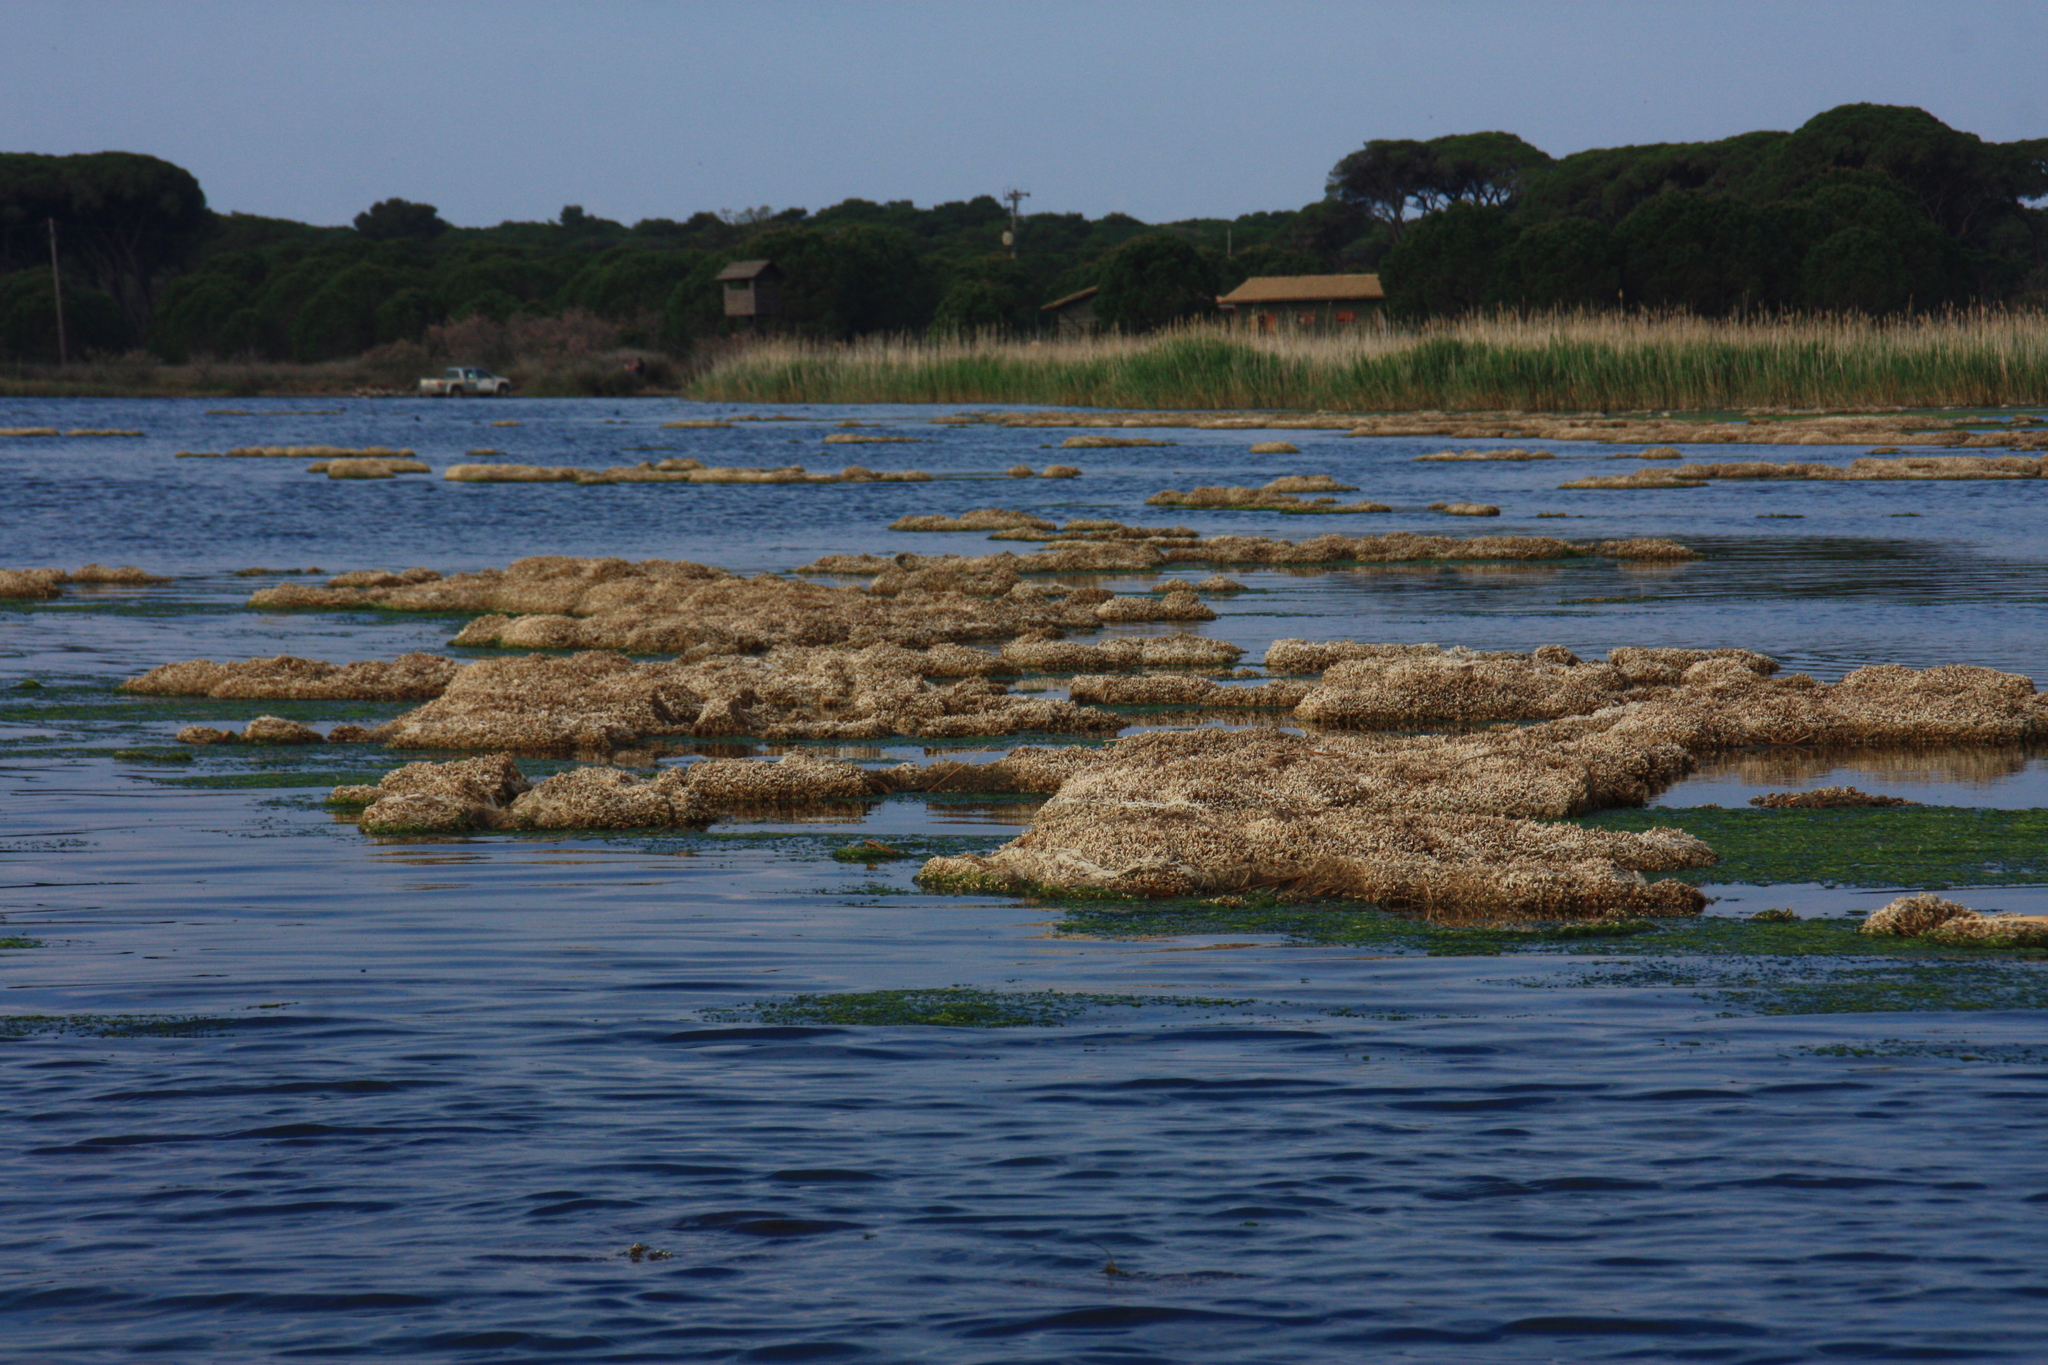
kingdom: Animalia
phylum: Annelida
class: Polychaeta
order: Sabellida
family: Serpulidae
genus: Ficopomatus
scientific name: Ficopomatus enigmaticus
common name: Australian tubeworm
